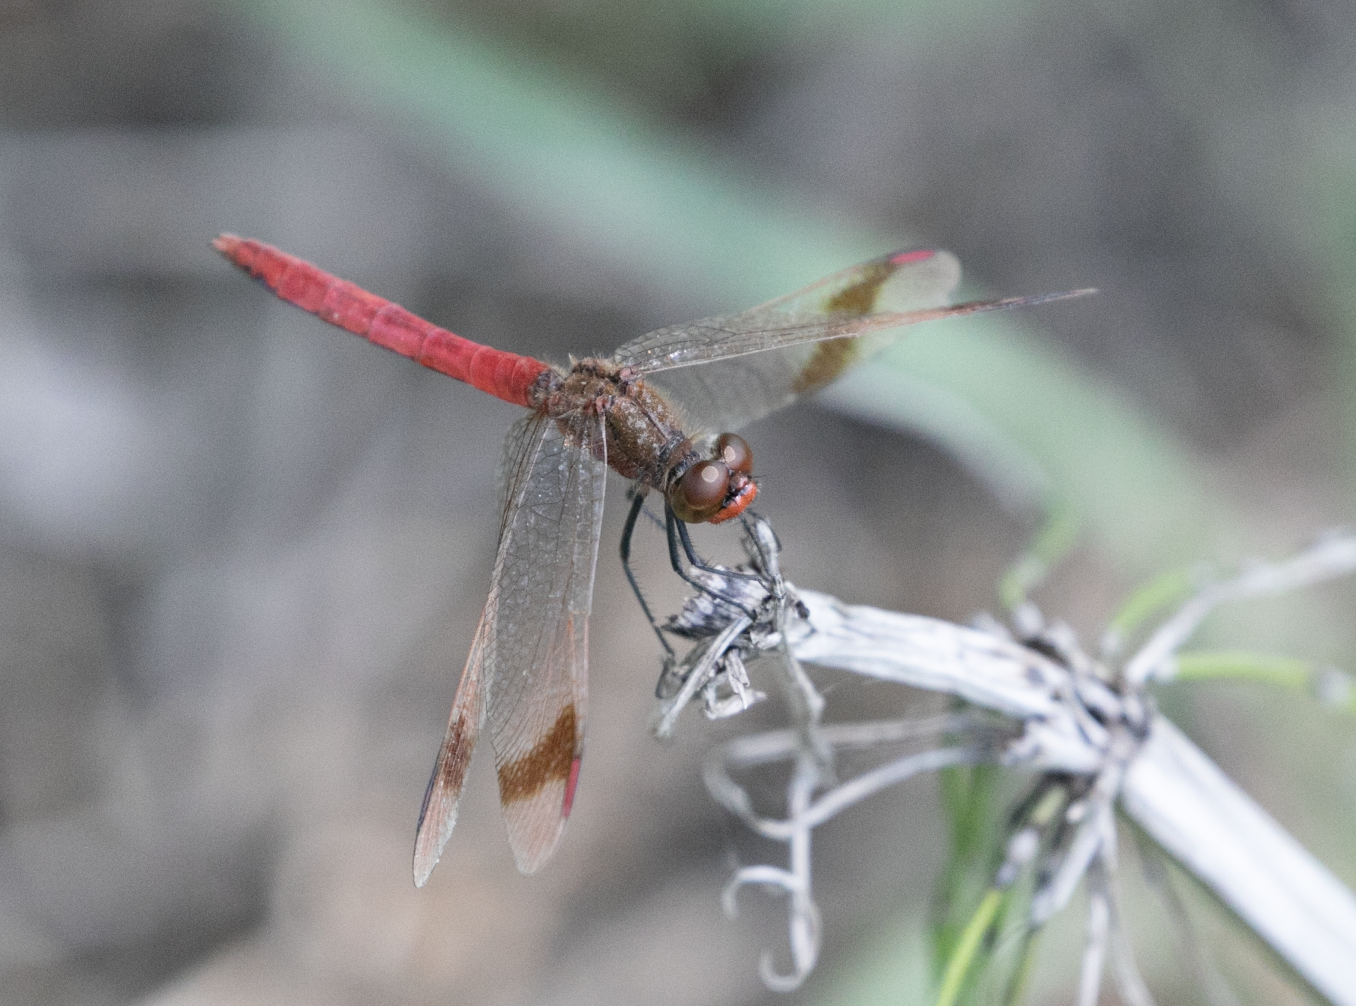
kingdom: Animalia
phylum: Arthropoda
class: Insecta
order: Odonata
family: Libellulidae
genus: Sympetrum
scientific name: Sympetrum pedemontanum
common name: Banded darter
